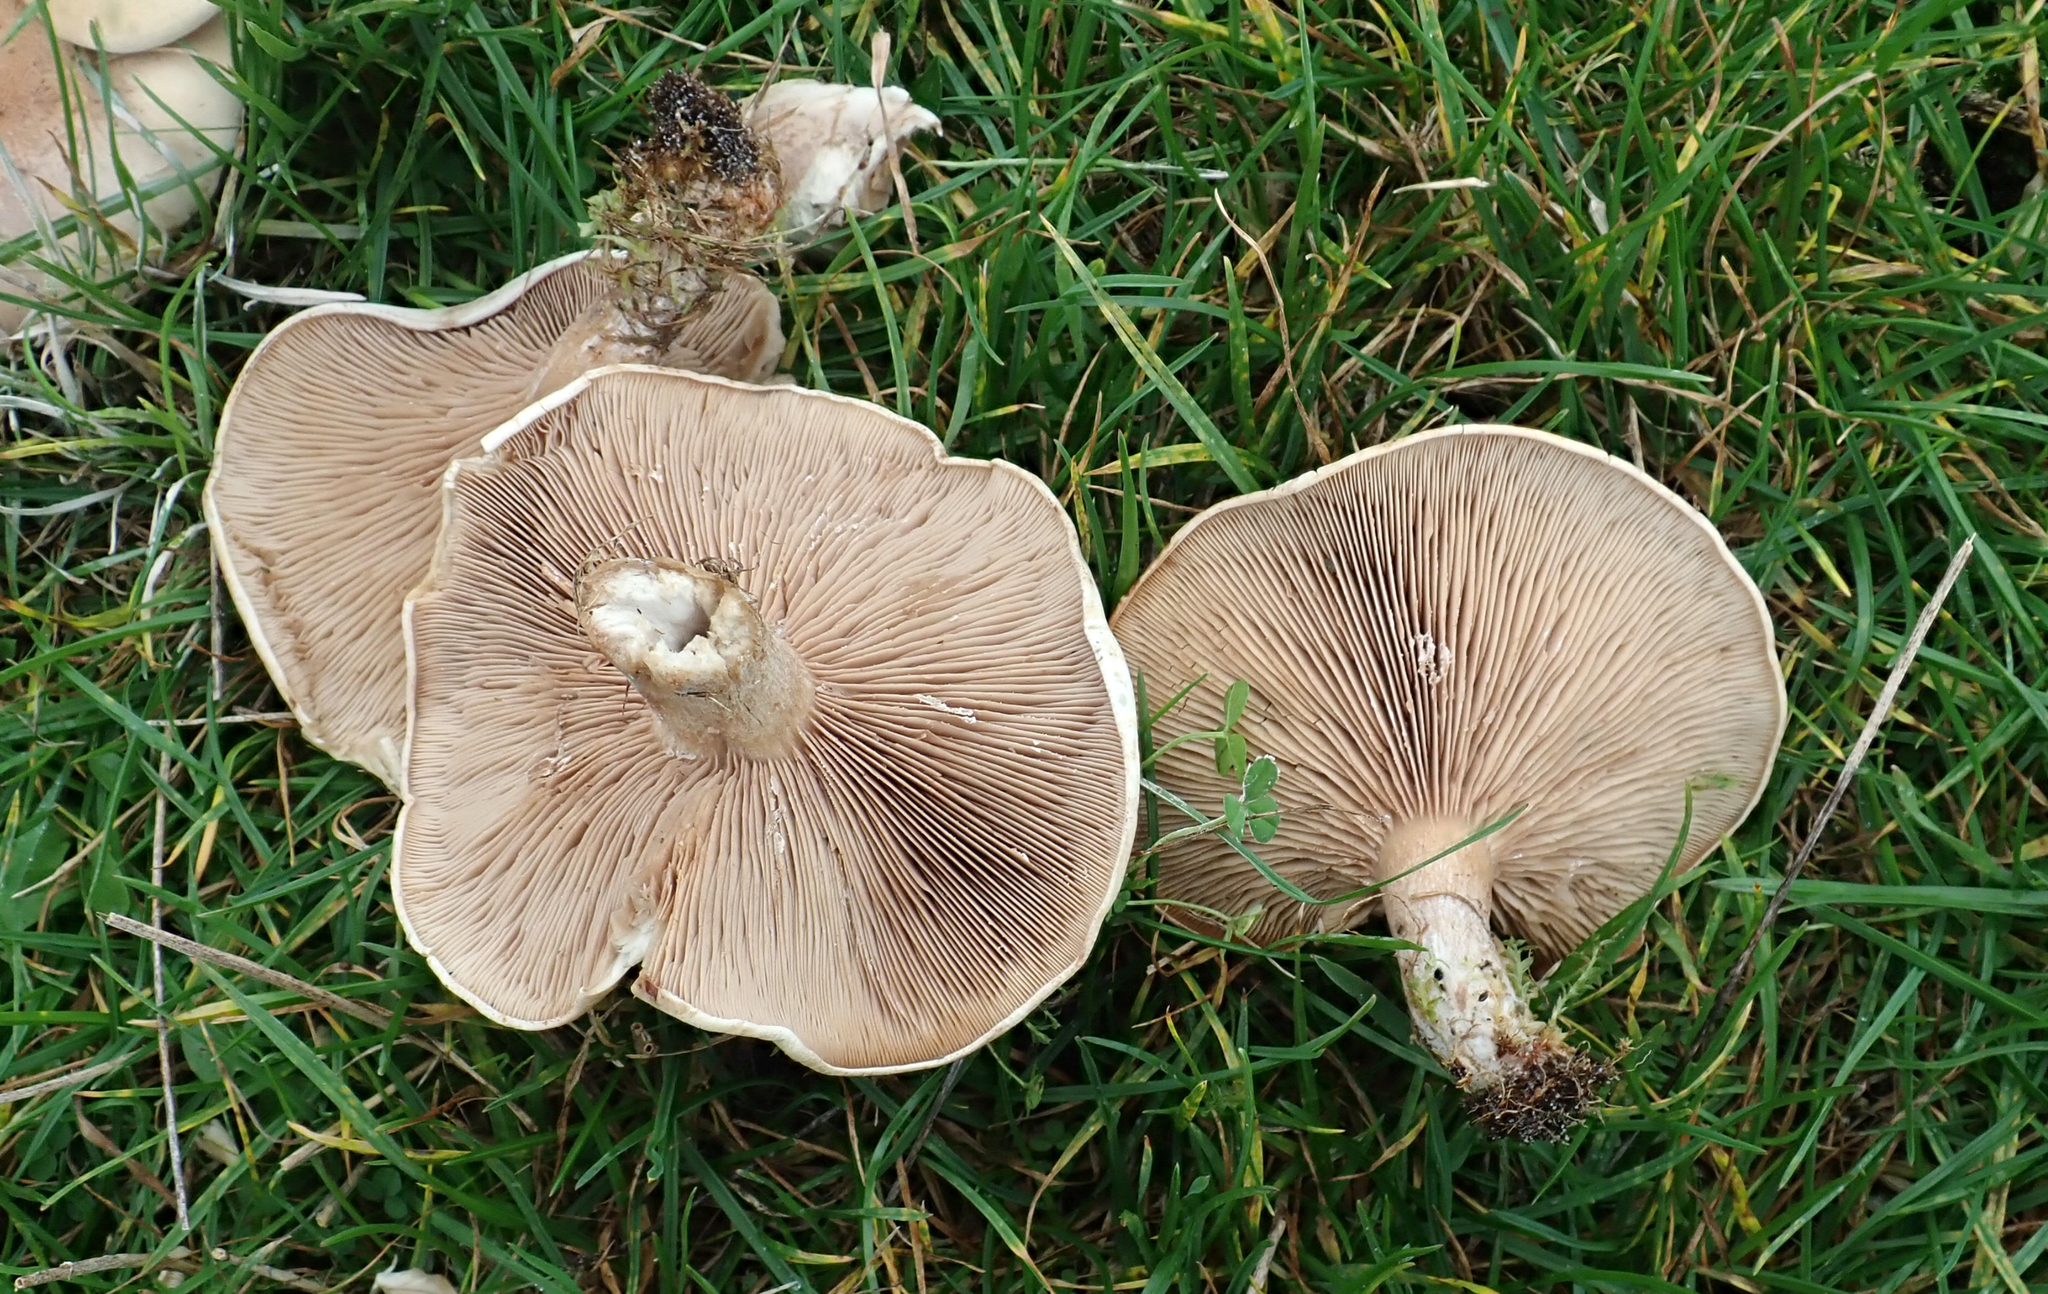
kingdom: Fungi
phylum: Basidiomycota
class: Agaricomycetes
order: Agaricales
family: Tricholomataceae
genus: Lepista
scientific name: Lepista luscina
